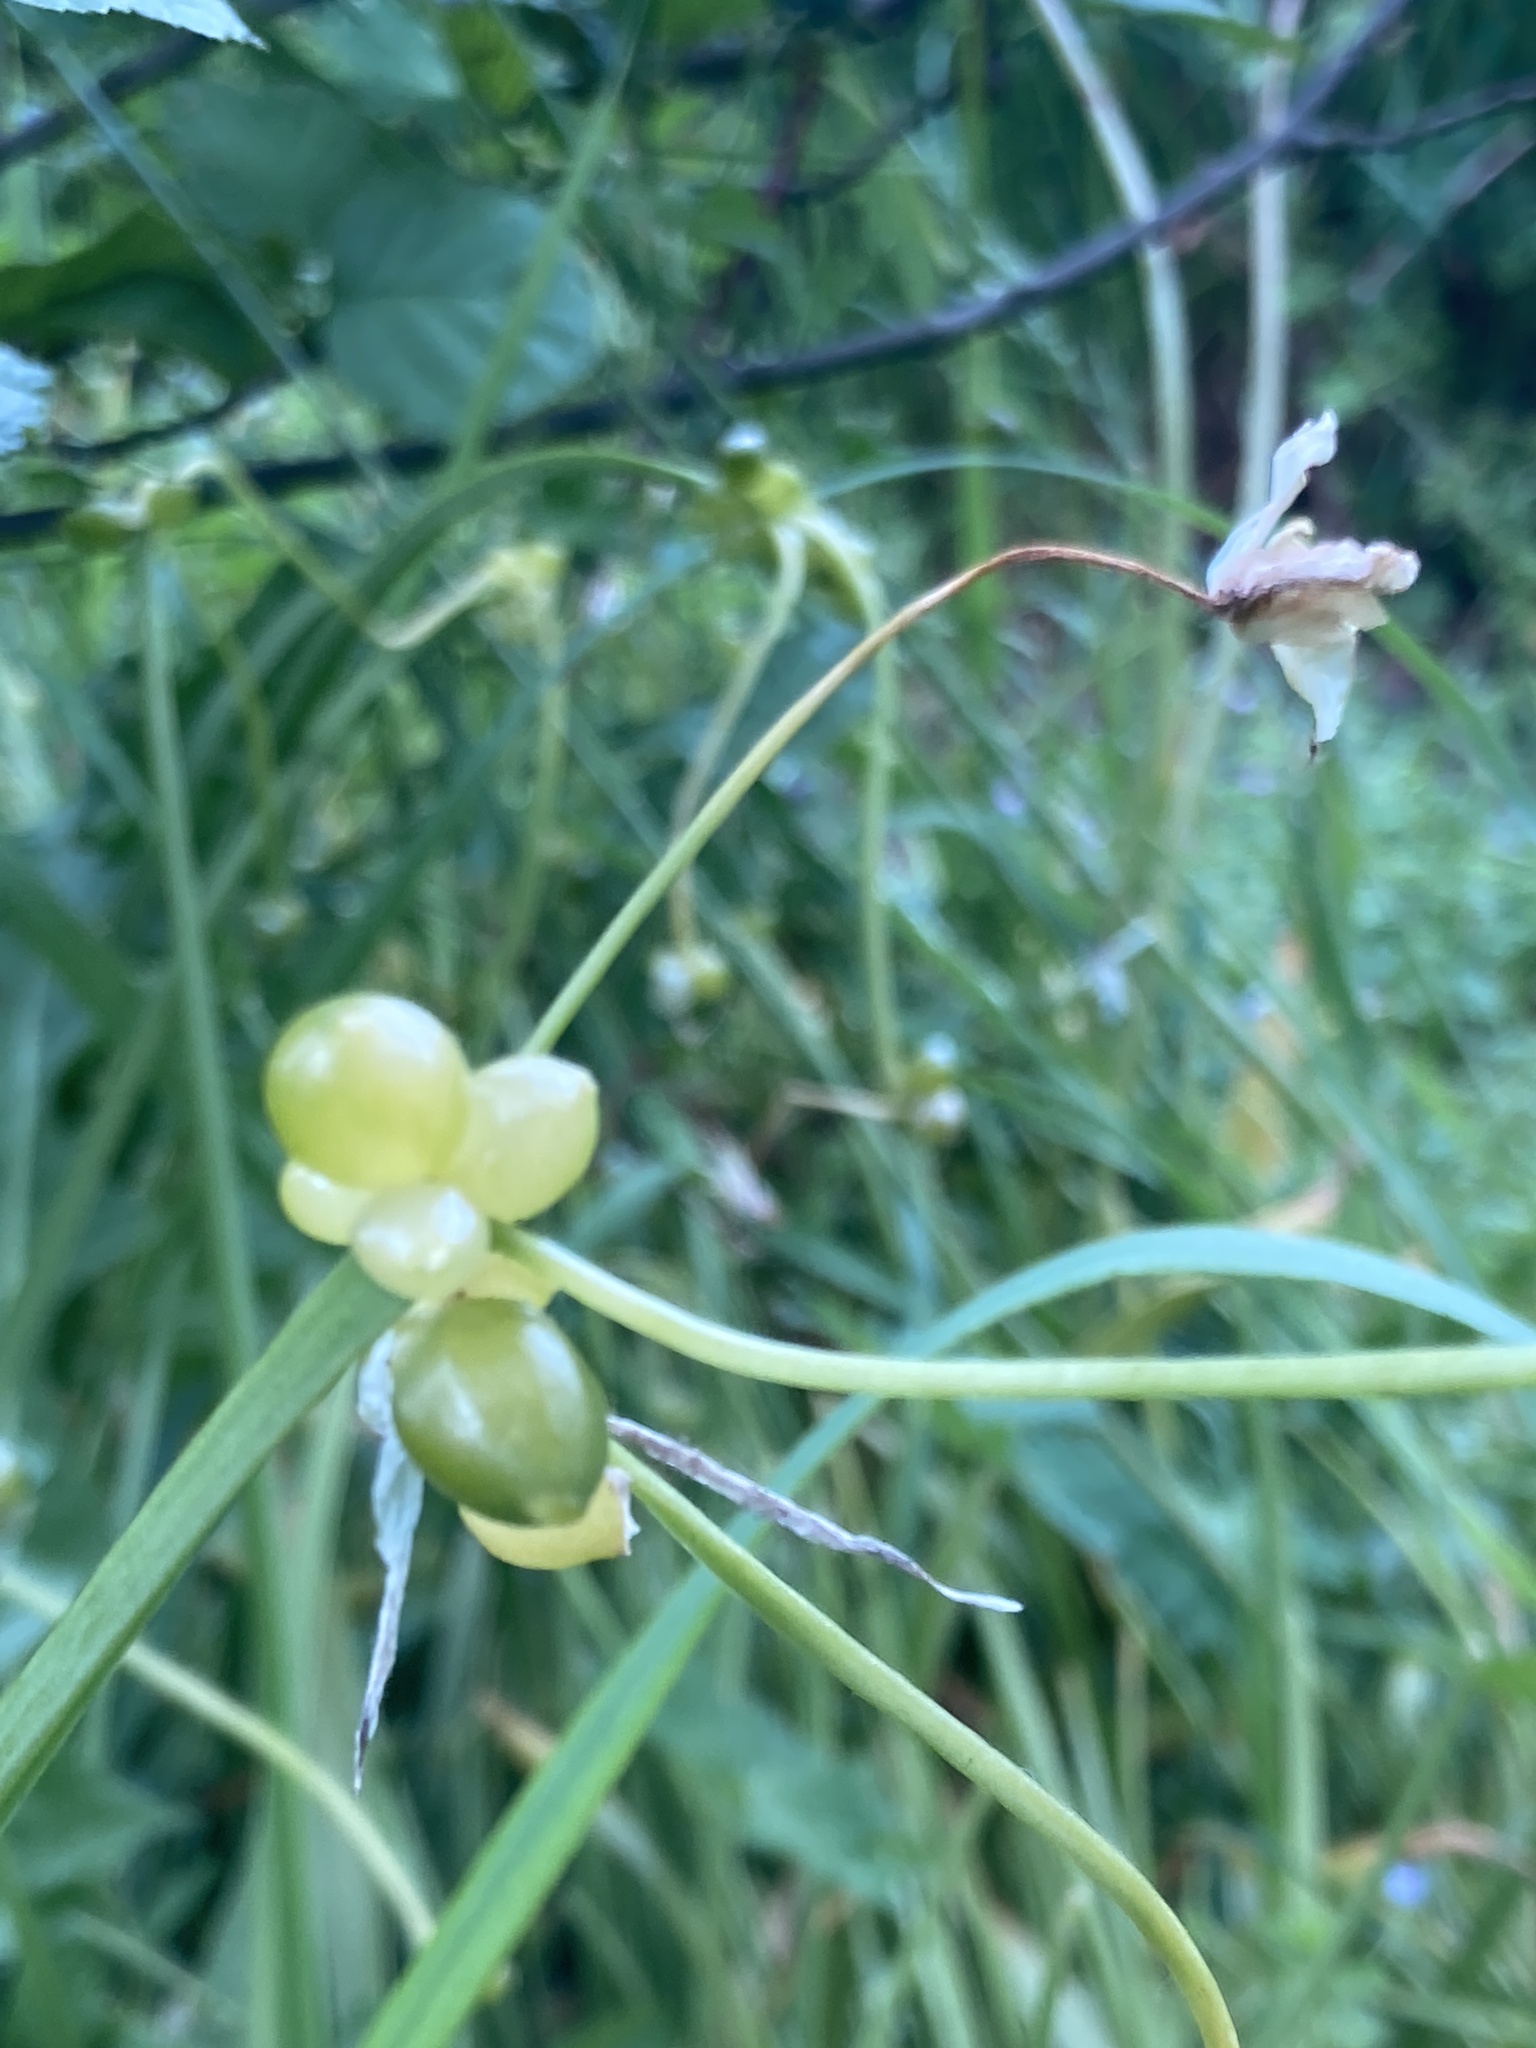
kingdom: Plantae
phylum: Tracheophyta
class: Liliopsida
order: Asparagales
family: Amaryllidaceae
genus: Allium
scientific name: Allium paradoxum
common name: Few-flowered garlic
